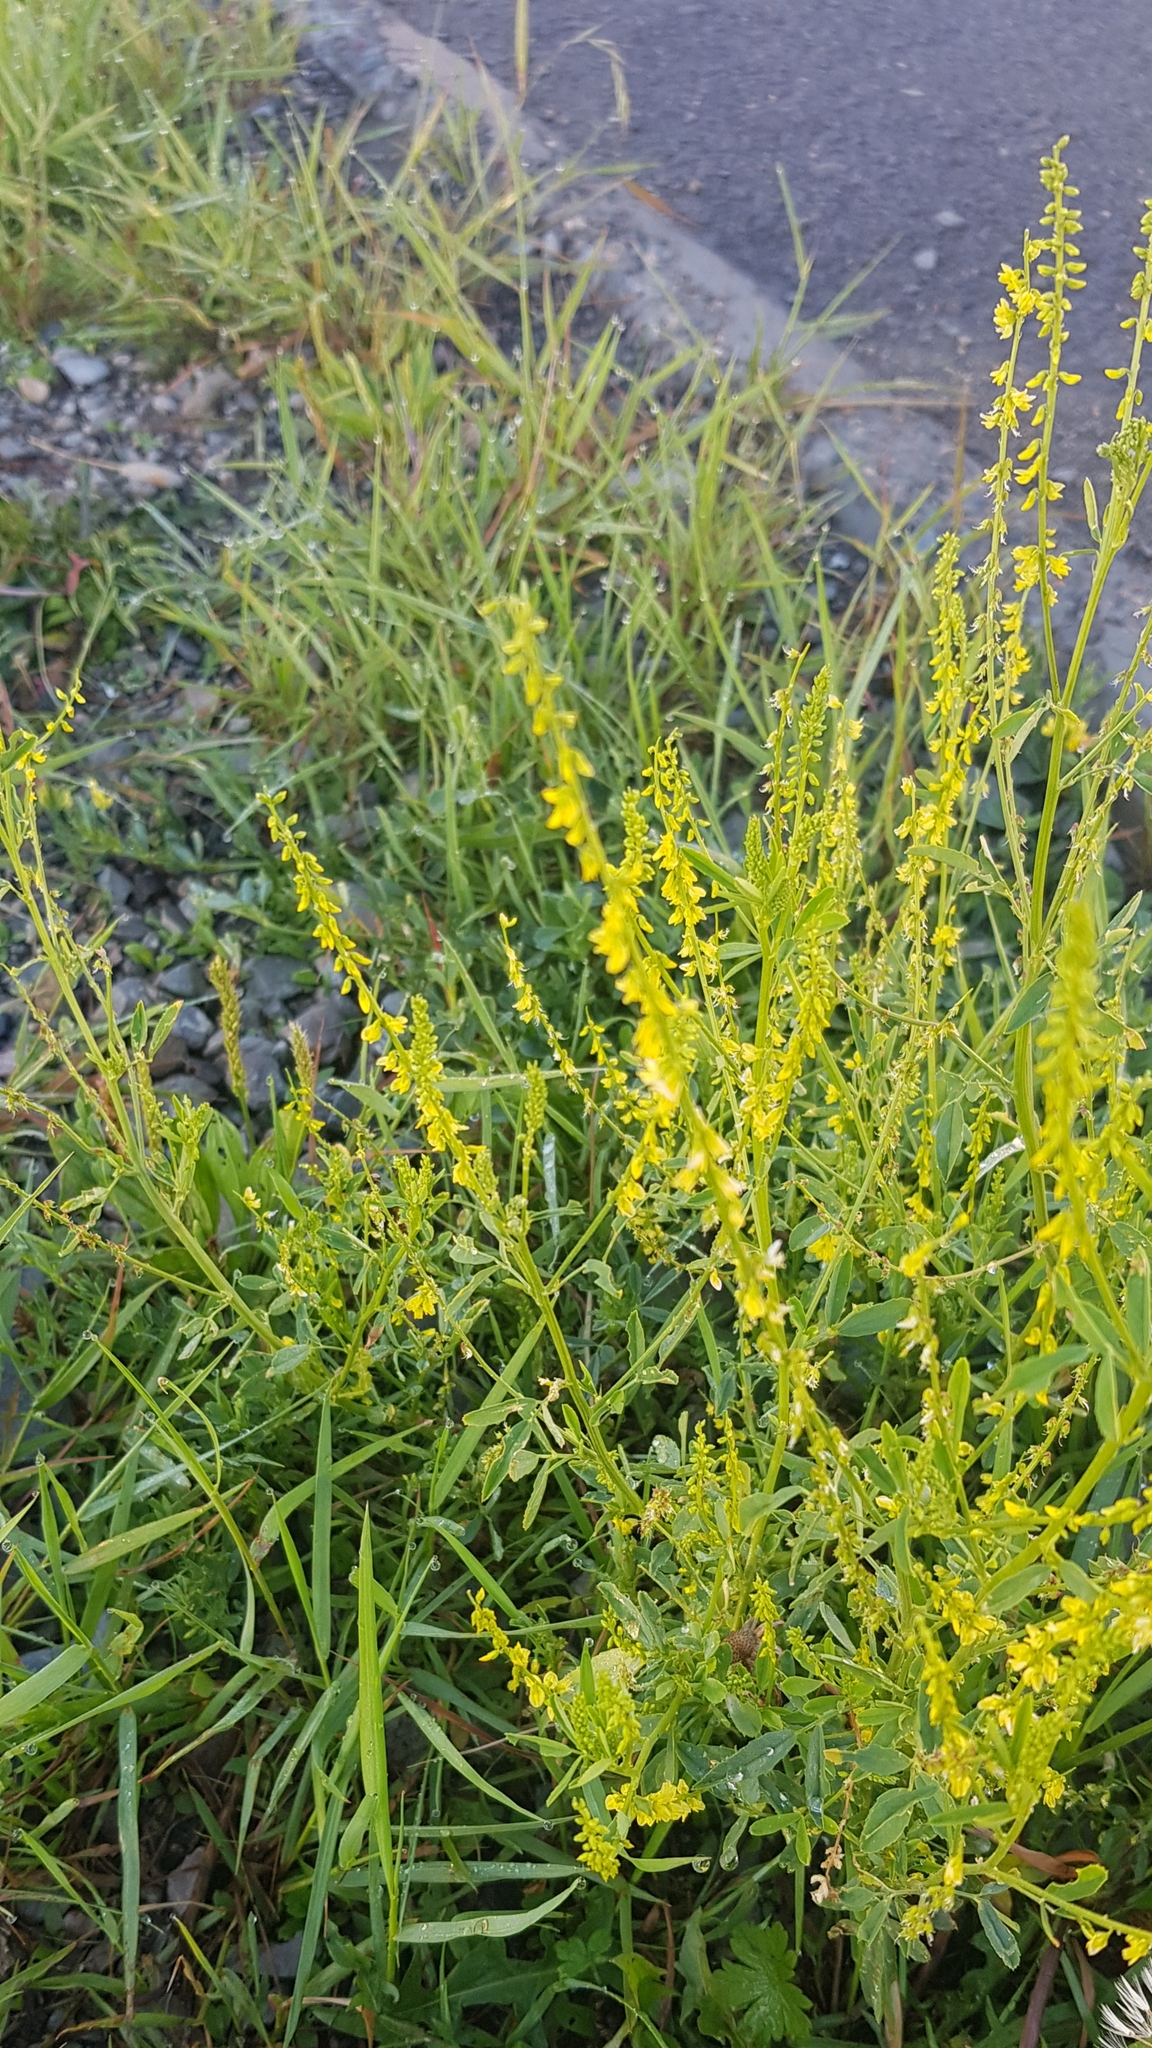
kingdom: Plantae
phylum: Tracheophyta
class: Magnoliopsida
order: Fabales
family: Fabaceae
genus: Melilotus
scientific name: Melilotus officinalis
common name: Sweetclover
